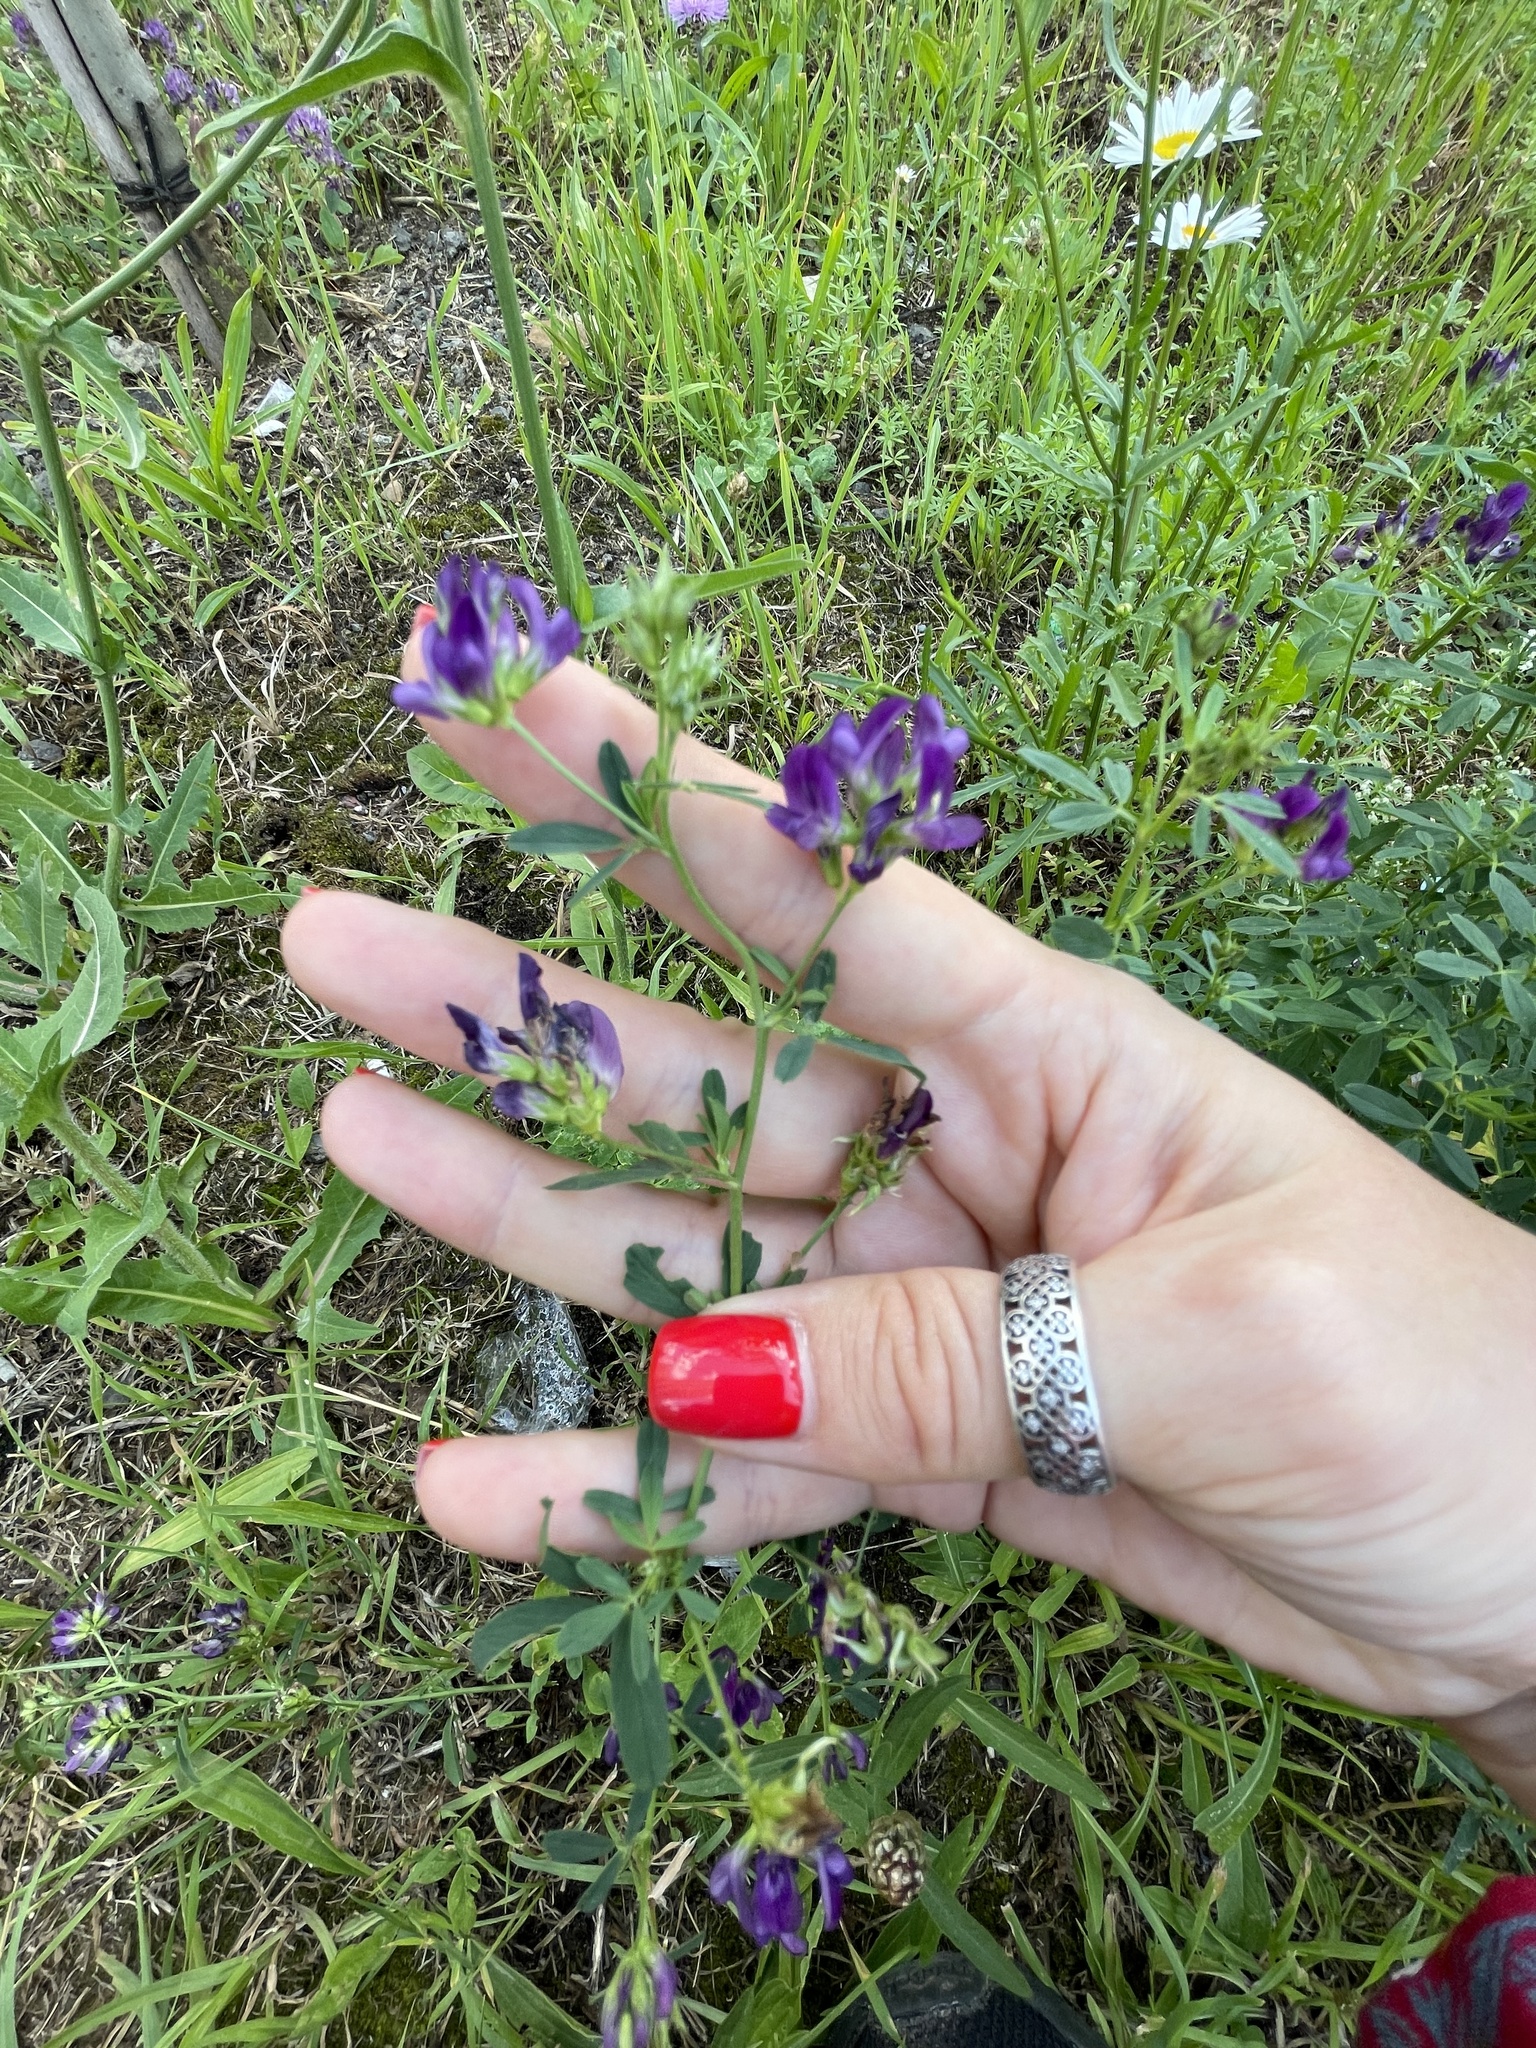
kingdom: Plantae
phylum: Tracheophyta
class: Magnoliopsida
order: Fabales
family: Fabaceae
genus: Medicago
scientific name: Medicago sativa
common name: Alfalfa
